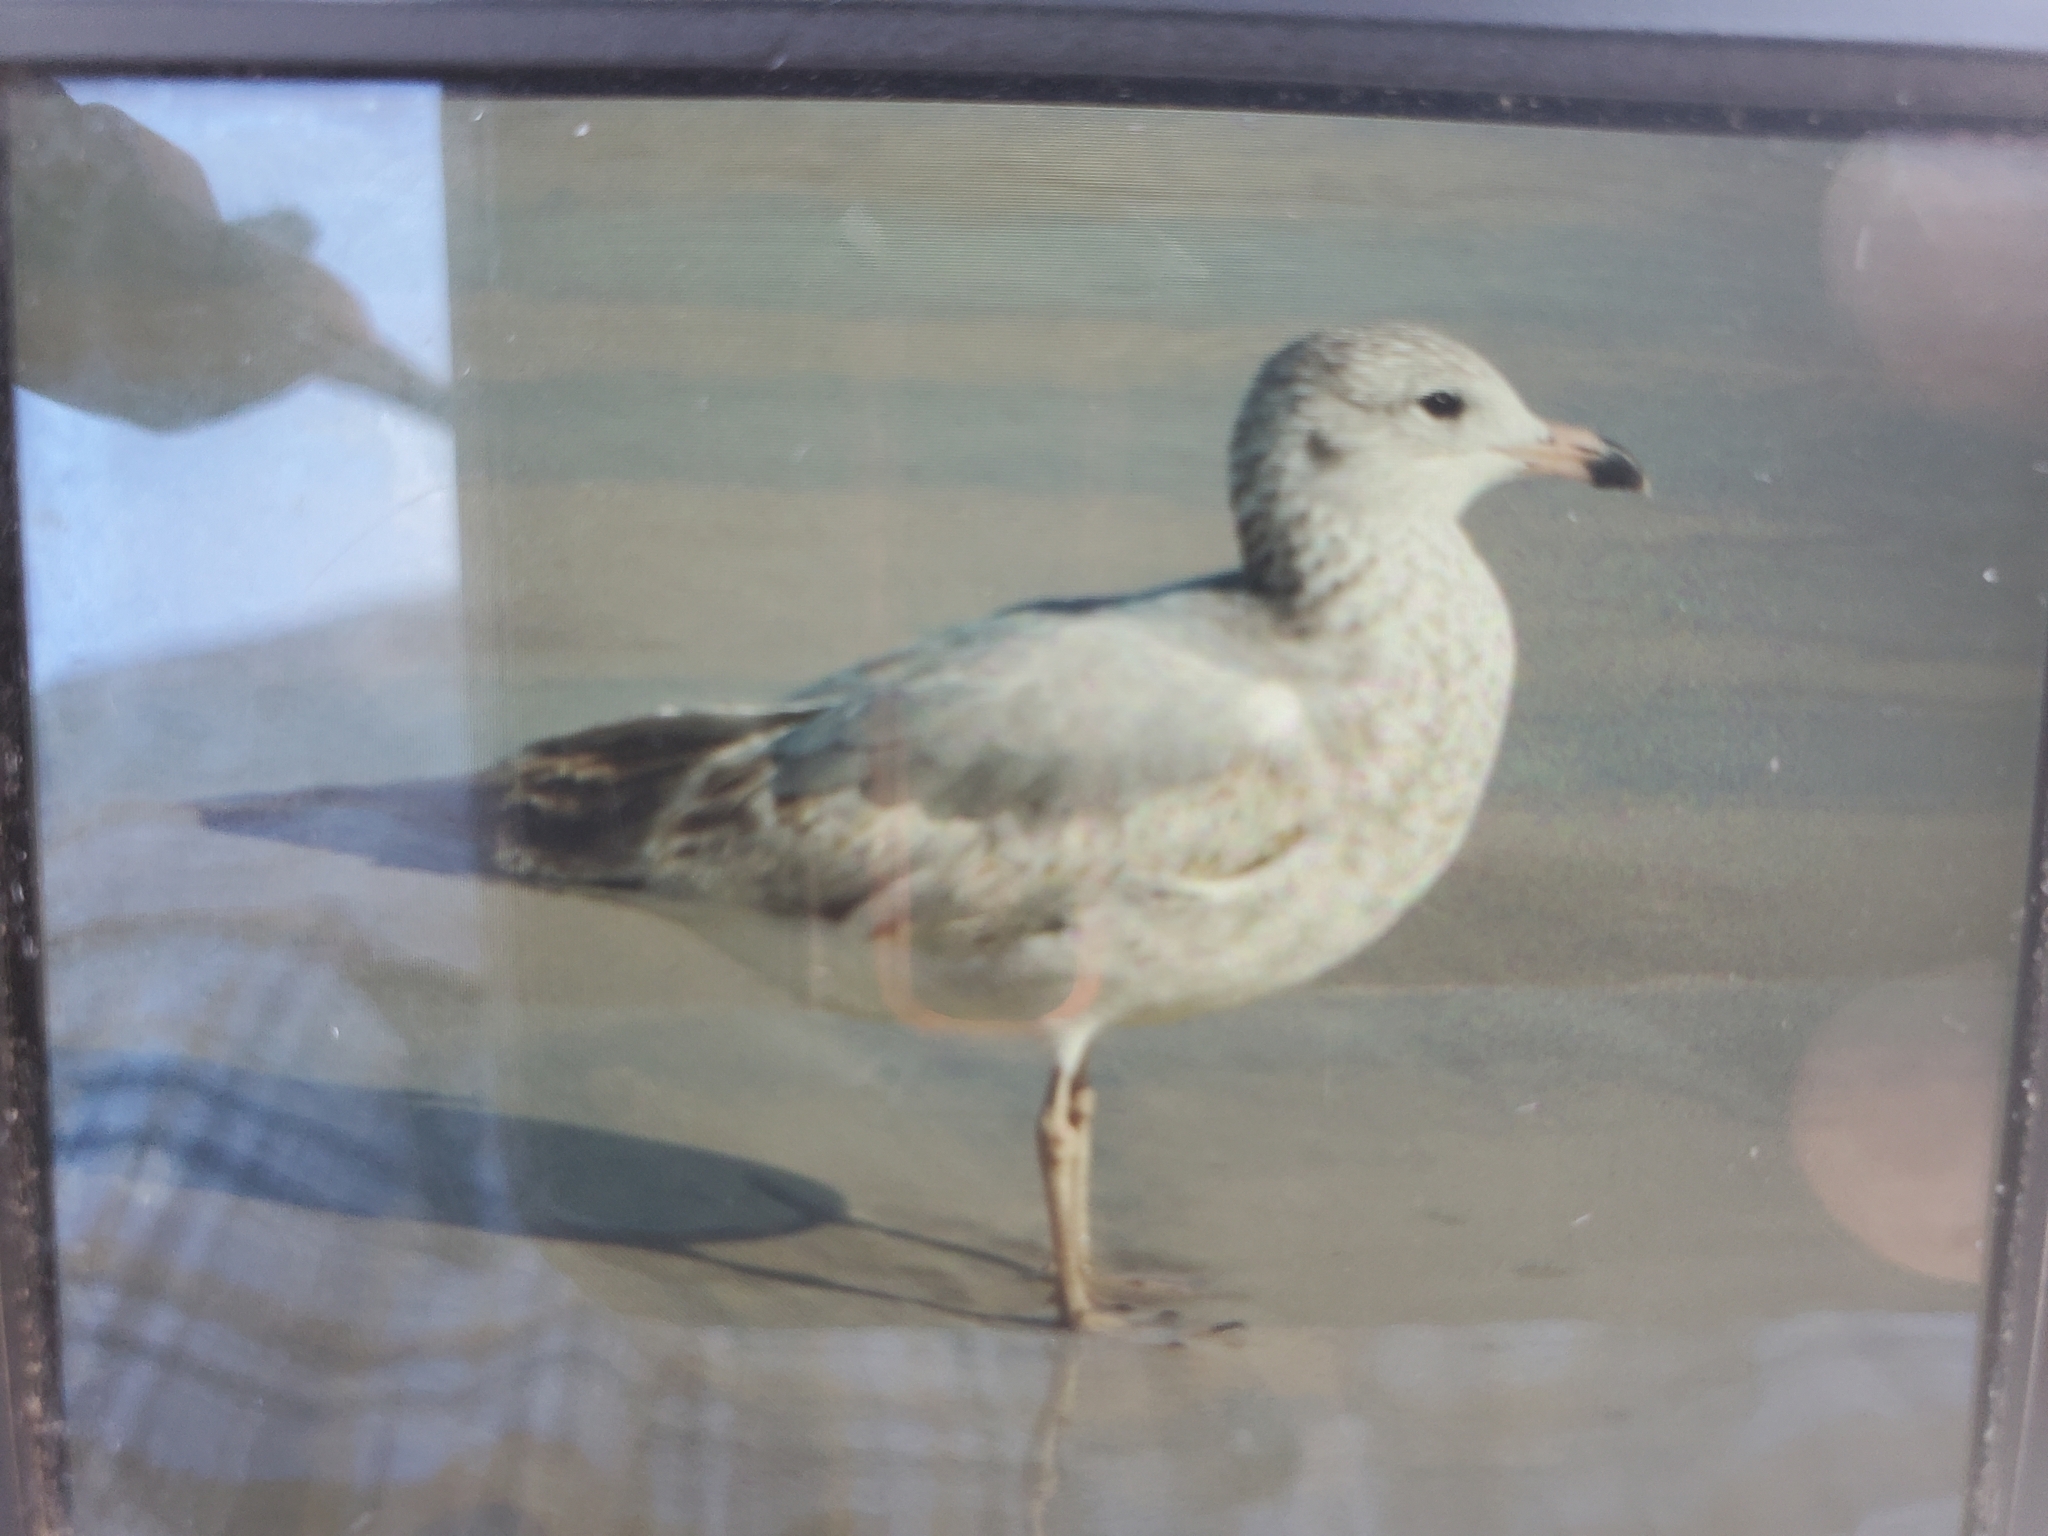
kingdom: Animalia
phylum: Chordata
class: Aves
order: Charadriiformes
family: Laridae
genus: Larus
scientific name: Larus delawarensis
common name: Ring-billed gull
